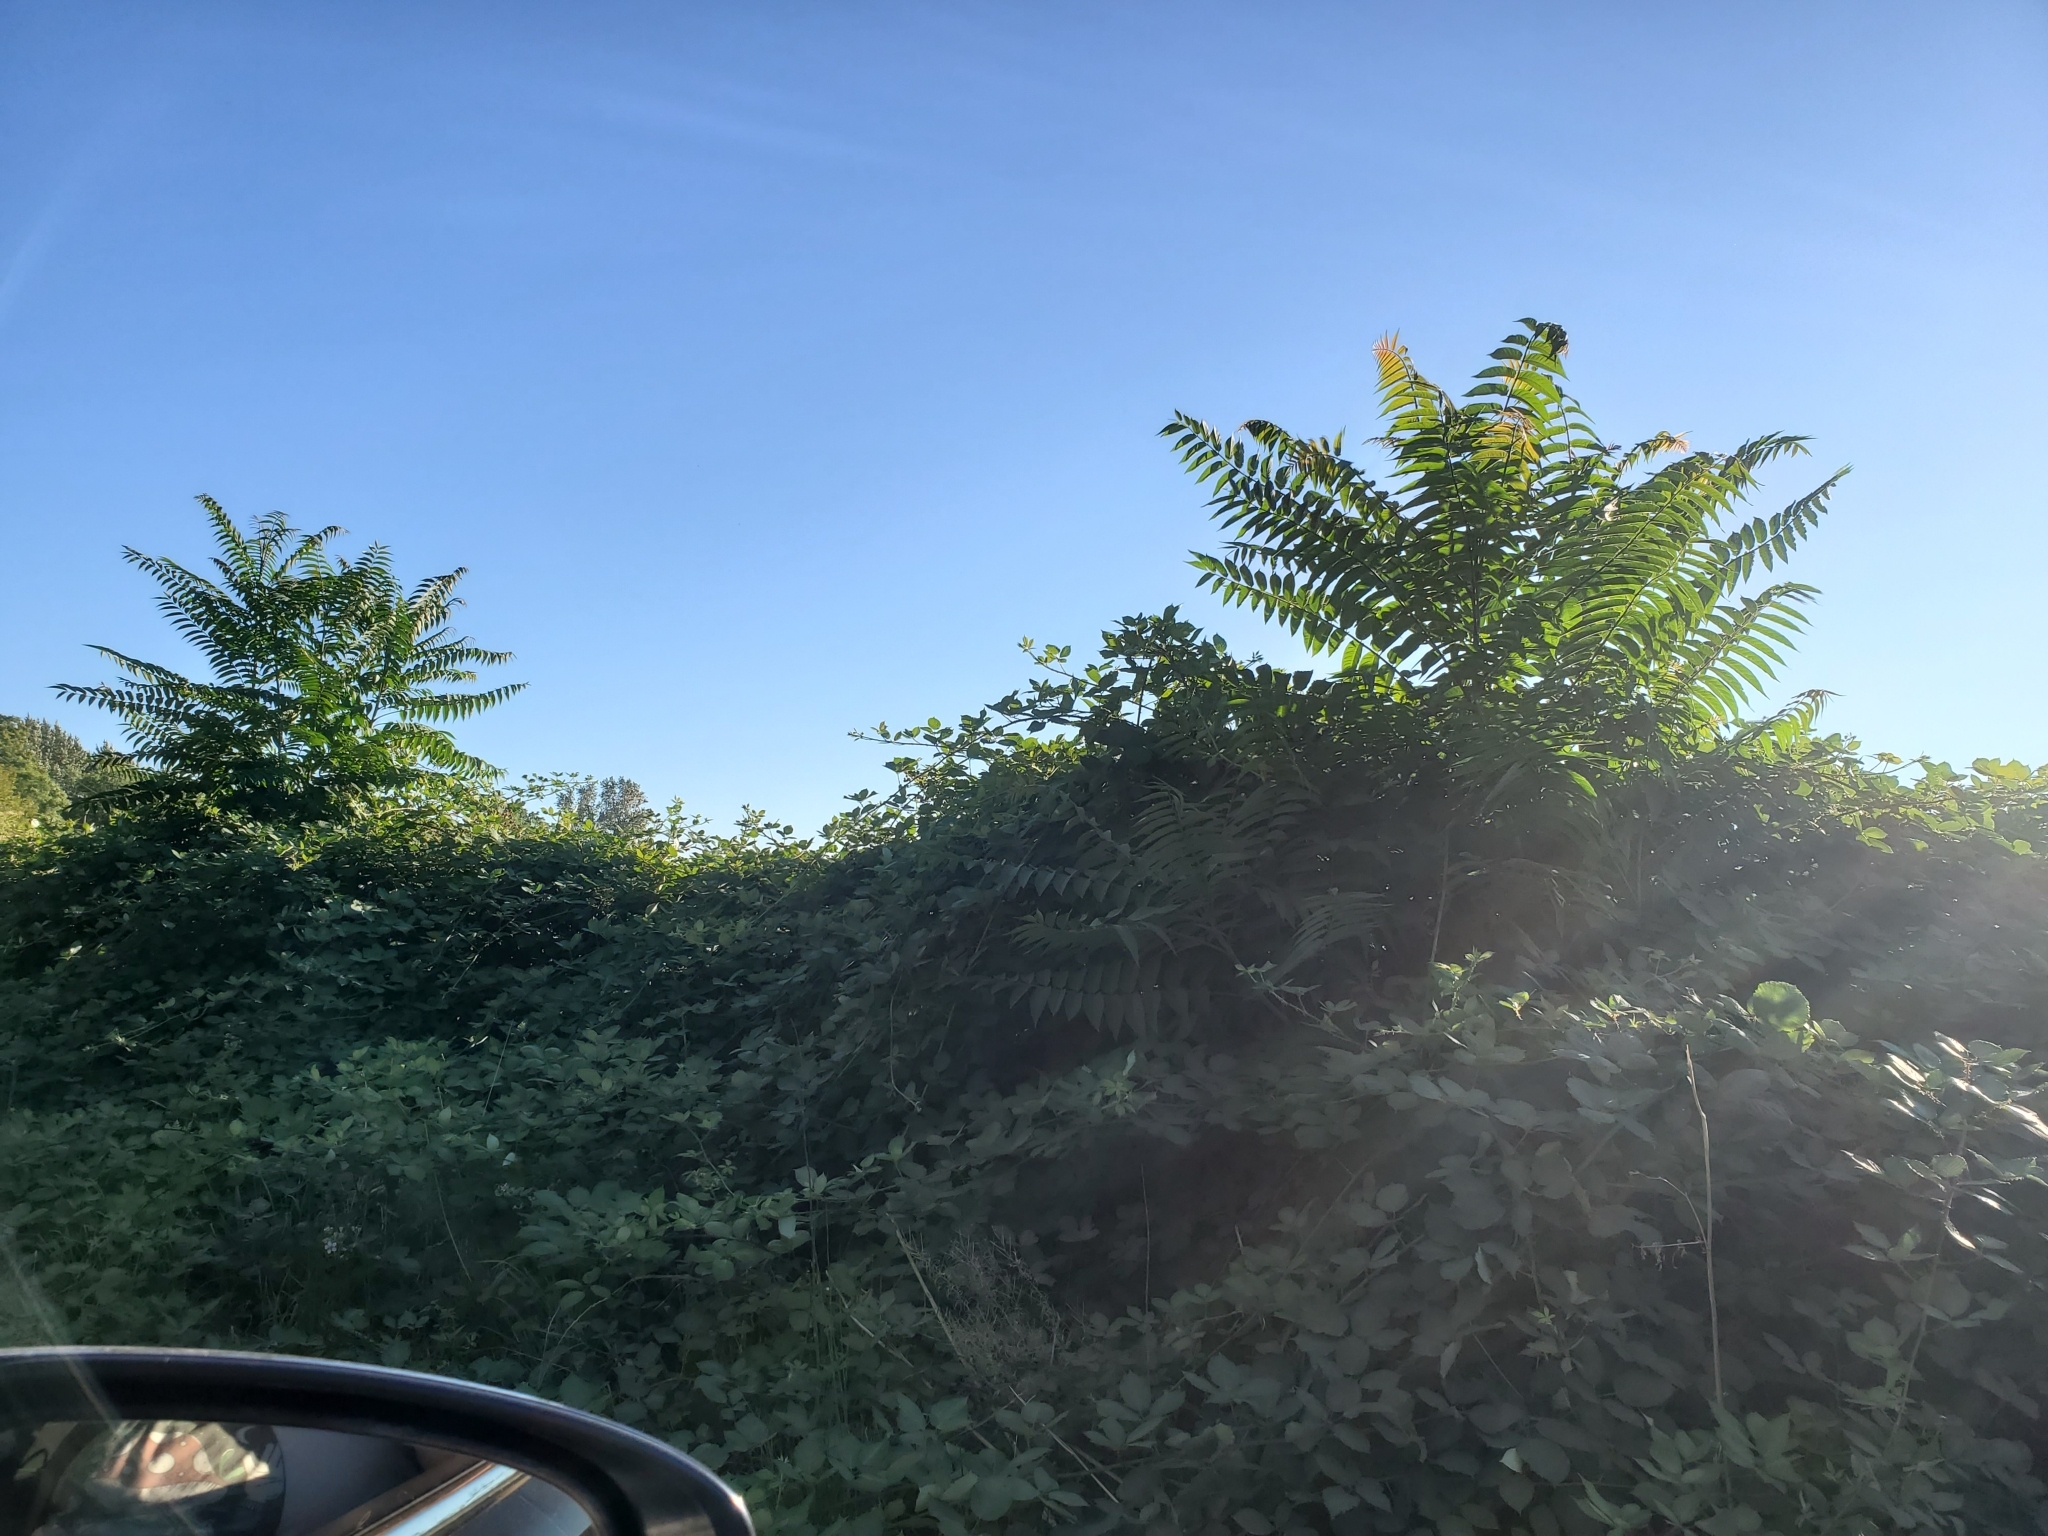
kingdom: Plantae
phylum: Tracheophyta
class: Magnoliopsida
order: Sapindales
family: Simaroubaceae
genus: Ailanthus
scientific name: Ailanthus altissima
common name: Tree-of-heaven
